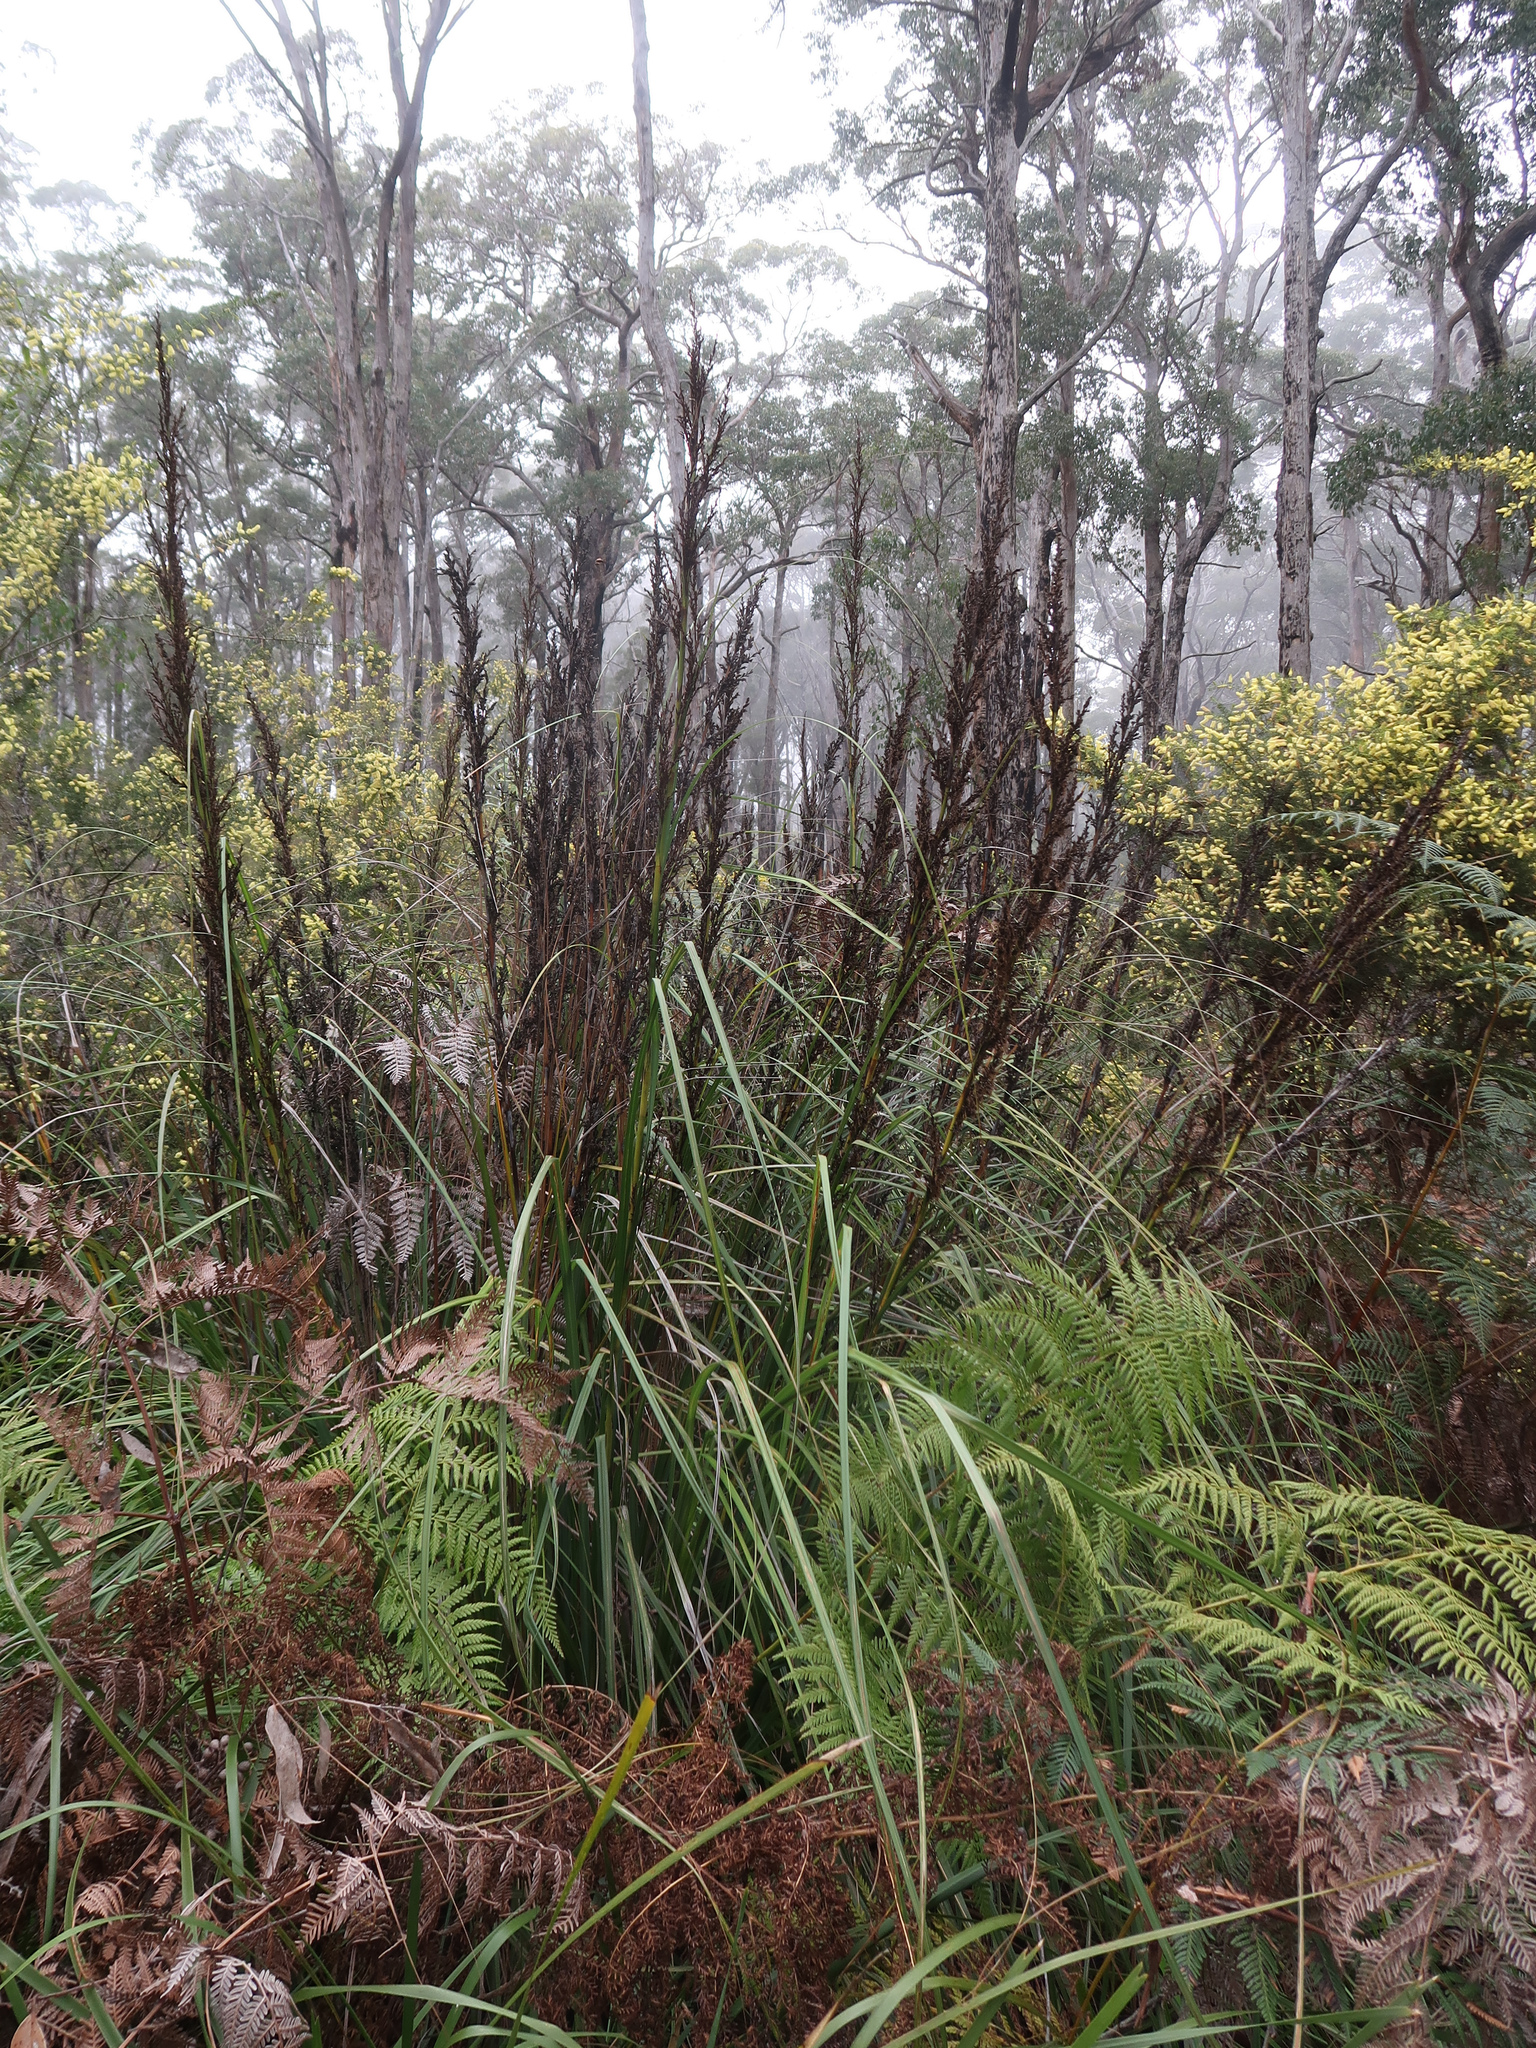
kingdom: Plantae
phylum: Tracheophyta
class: Liliopsida
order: Poales
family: Cyperaceae
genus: Gahnia
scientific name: Gahnia grandis
